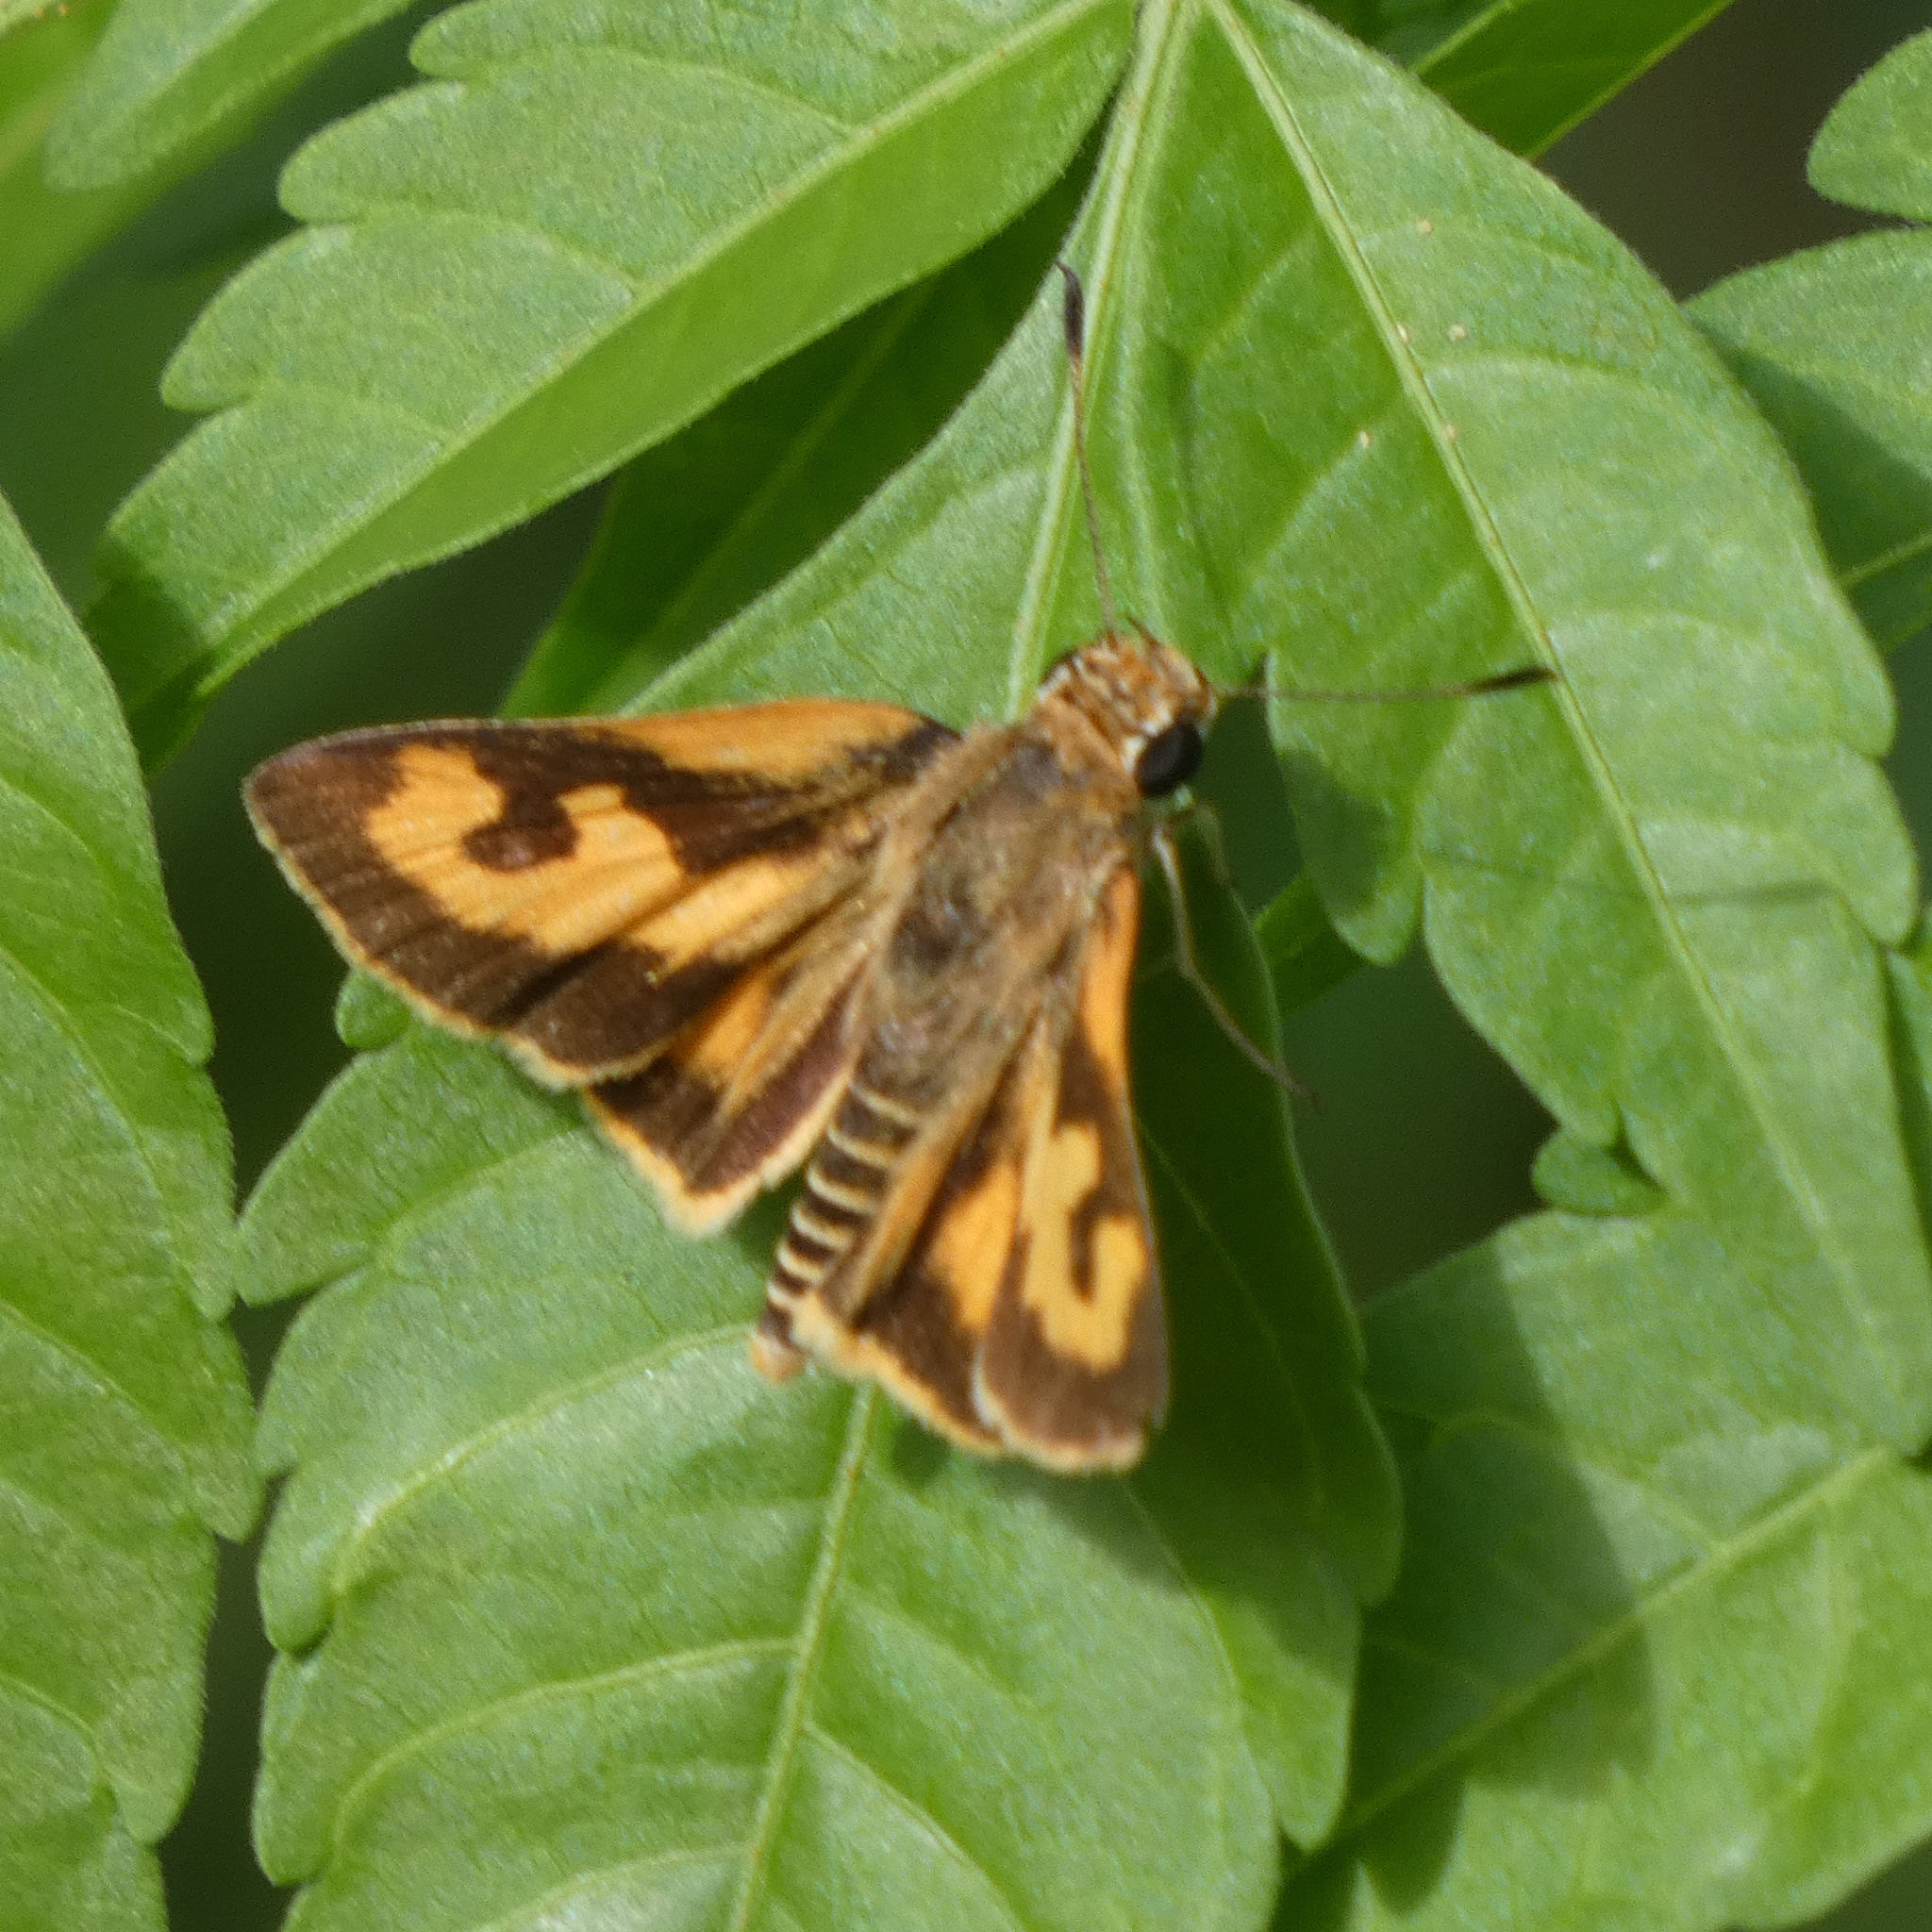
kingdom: Animalia
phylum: Arthropoda
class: Insecta
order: Lepidoptera
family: Hesperiidae
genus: Acada
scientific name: Acada biseriatus
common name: Axehead orange
